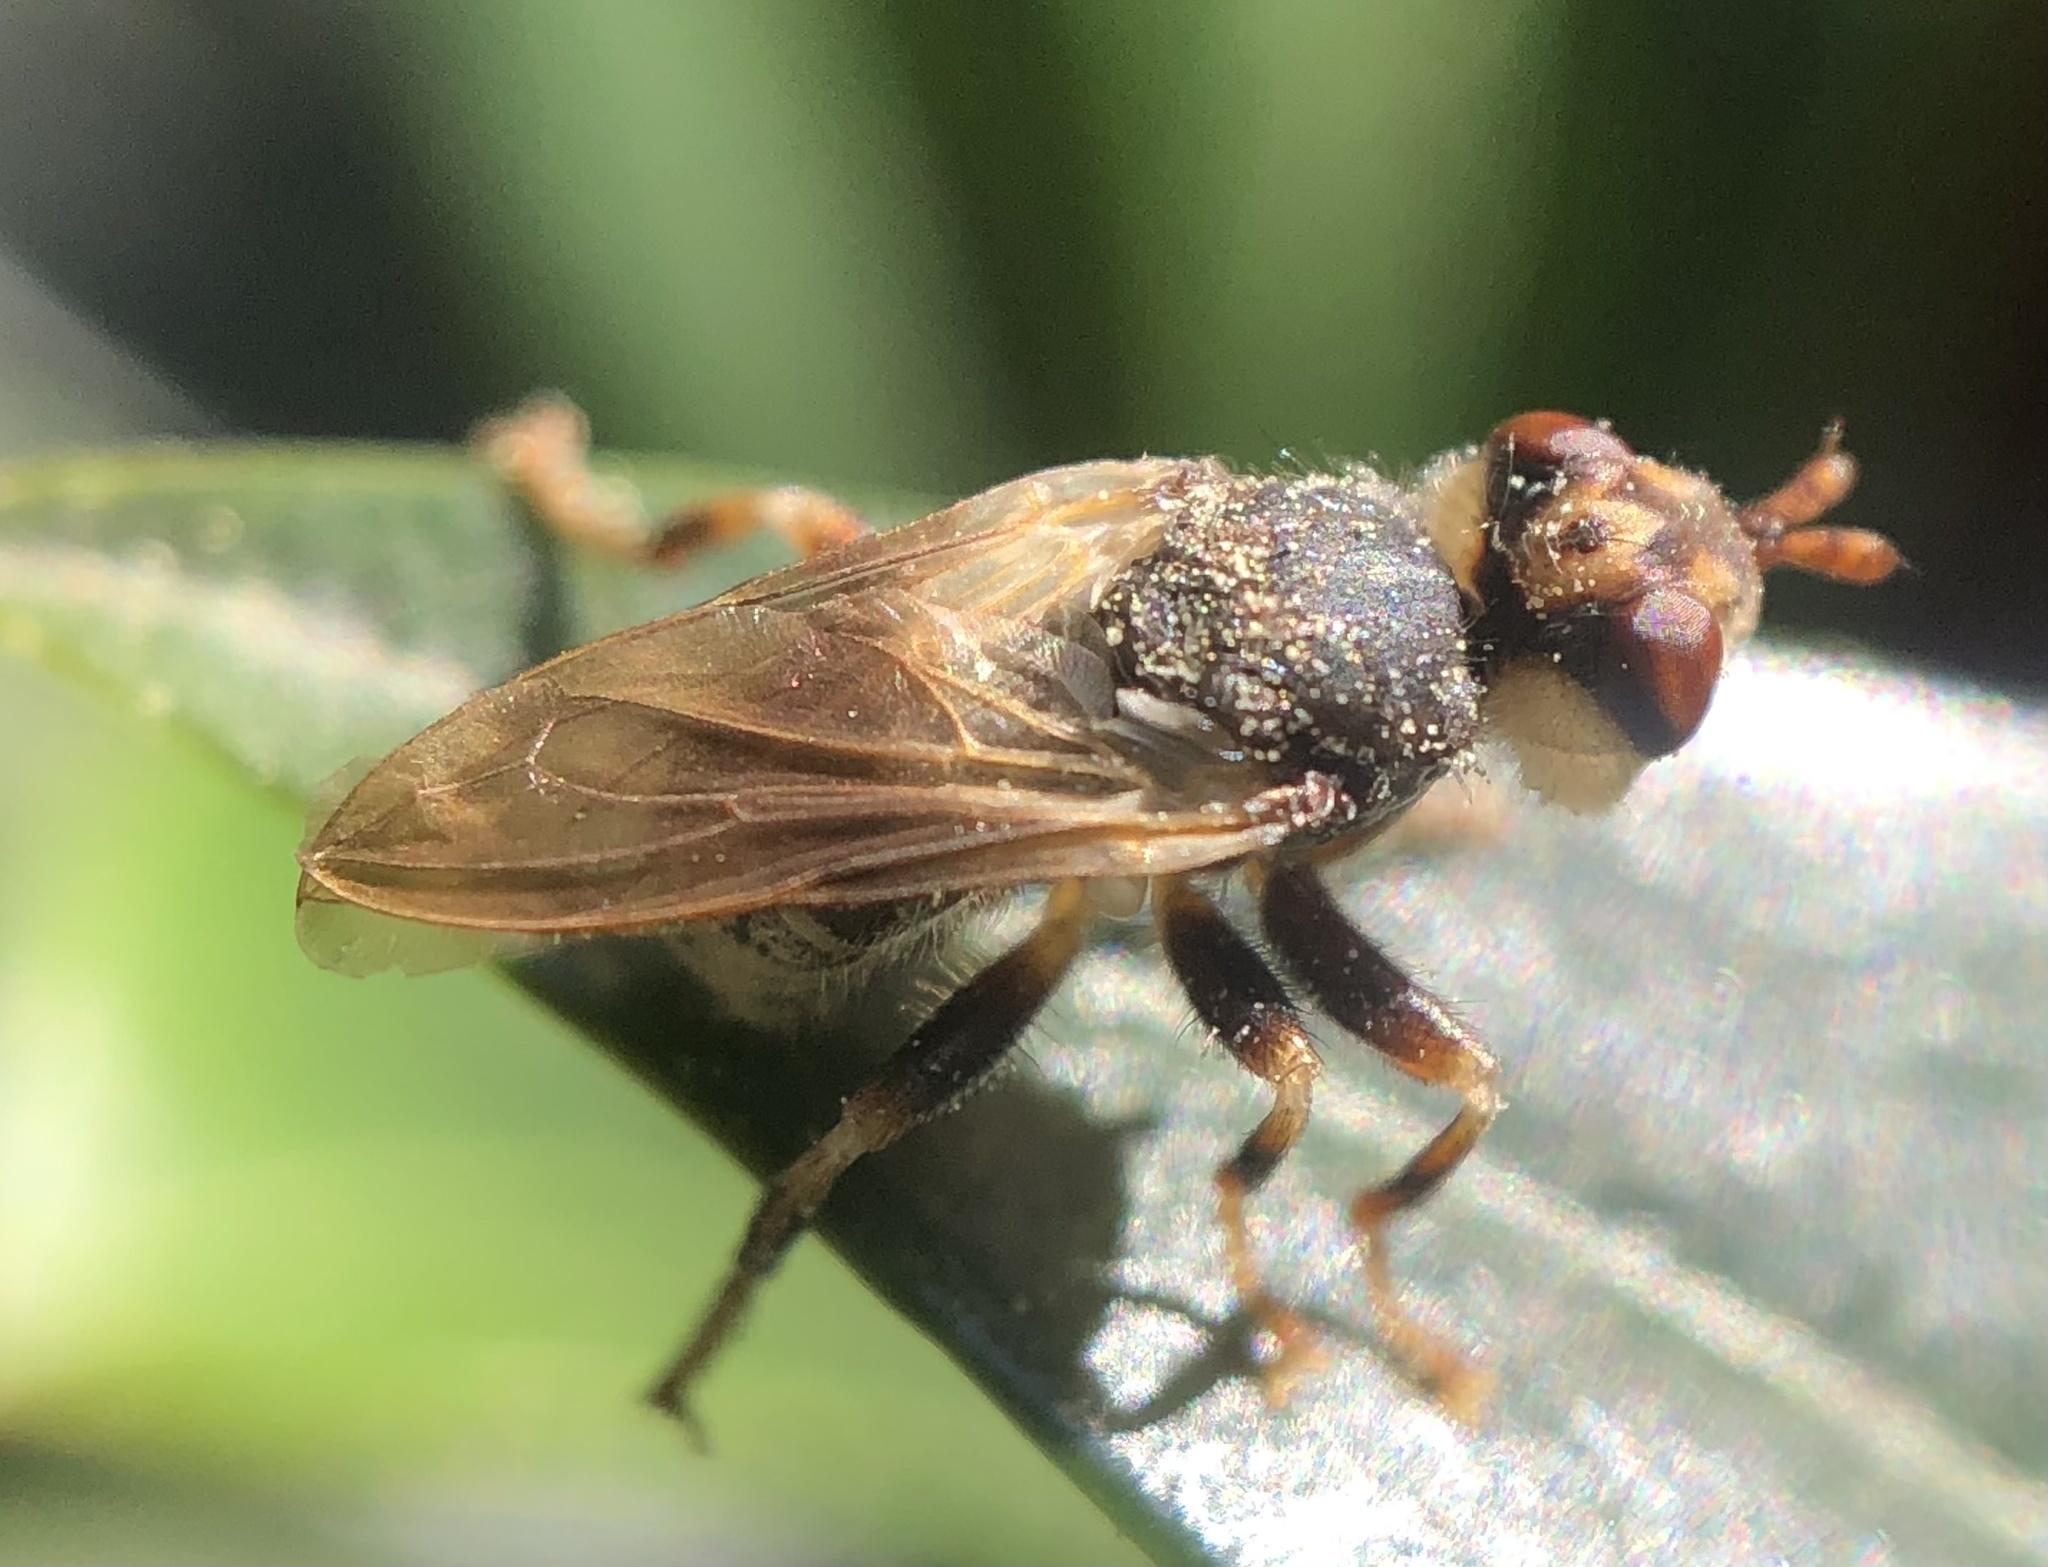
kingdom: Animalia
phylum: Arthropoda
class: Insecta
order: Diptera
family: Conopidae
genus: Myopa
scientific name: Myopa vesiculosa
